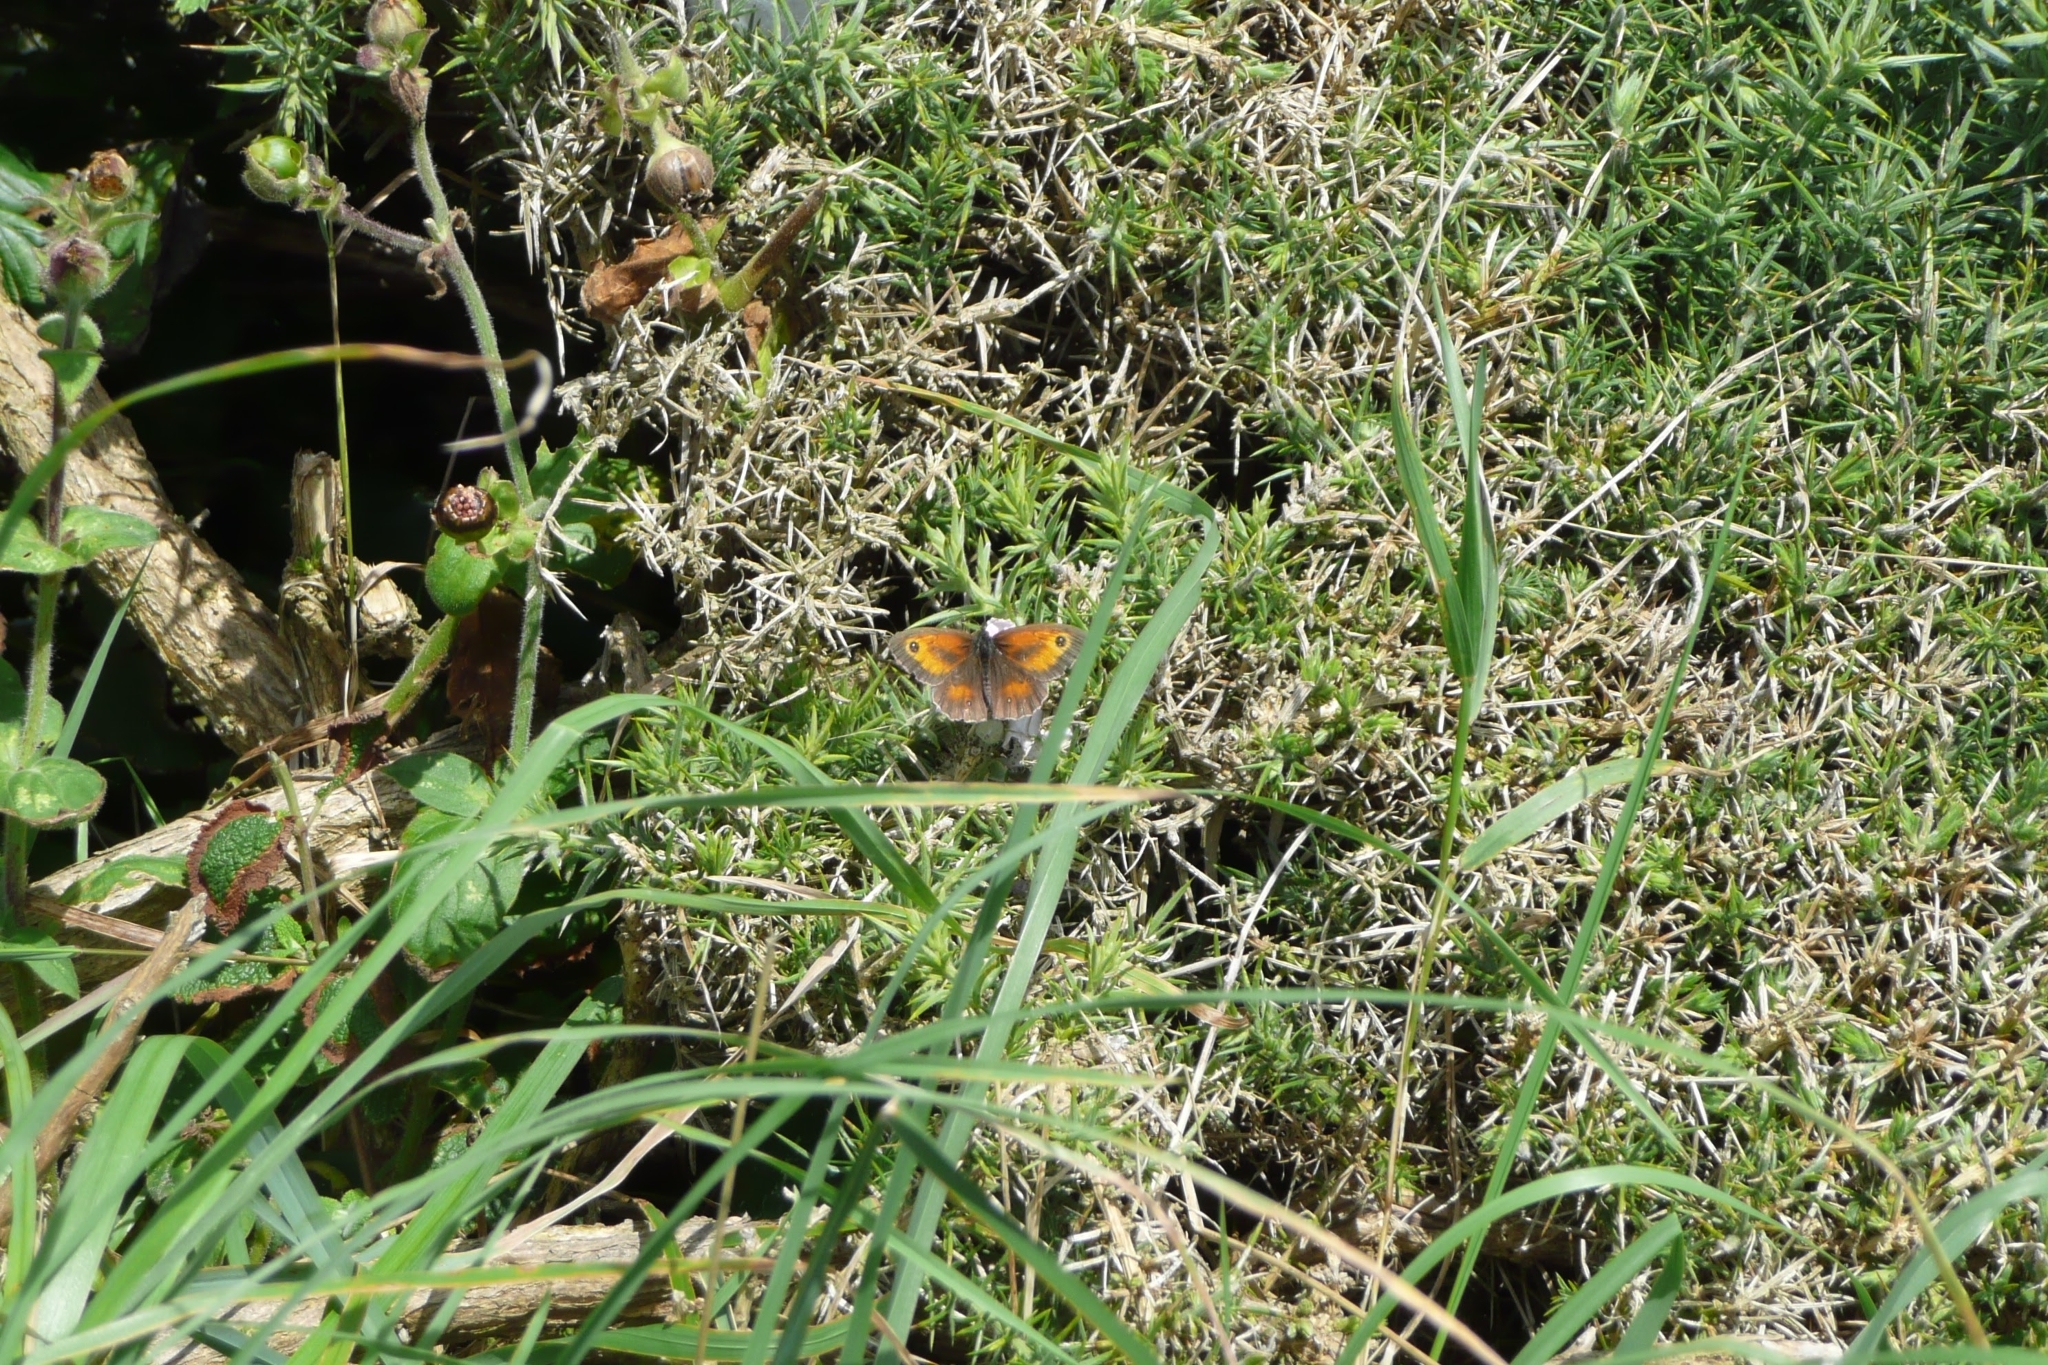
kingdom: Animalia
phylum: Arthropoda
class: Insecta
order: Lepidoptera
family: Nymphalidae
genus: Pyronia
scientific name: Pyronia tithonus
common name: Gatekeeper
